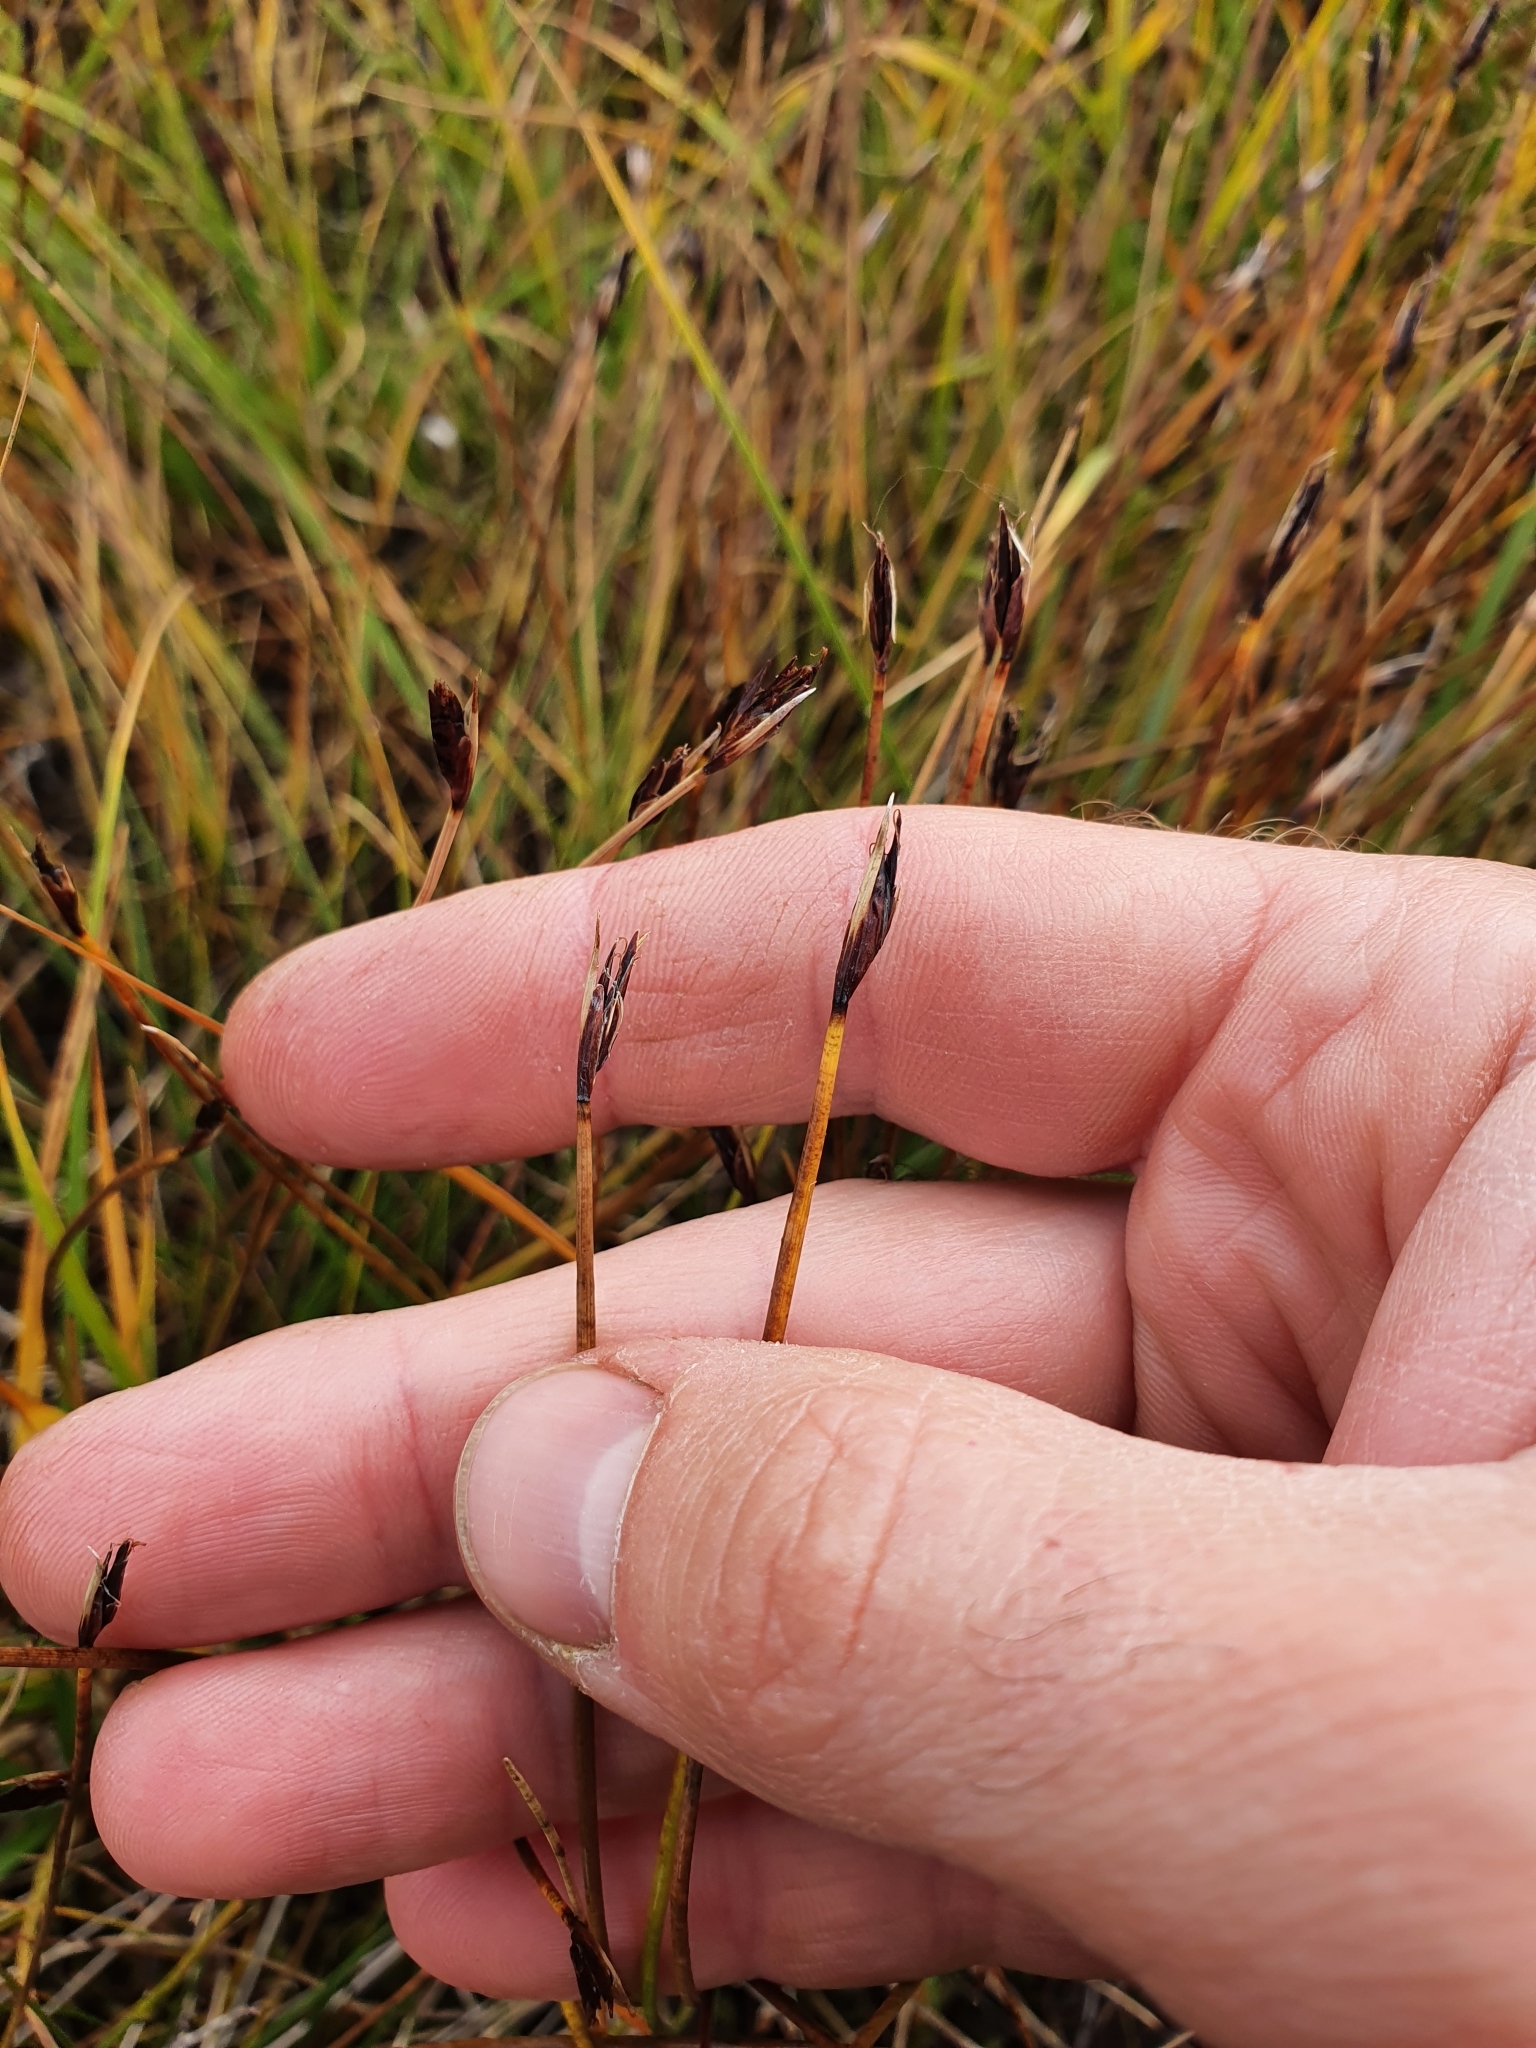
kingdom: Plantae
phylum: Tracheophyta
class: Liliopsida
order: Poales
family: Cyperaceae
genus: Schoenus
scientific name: Schoenus ferrugineus
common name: Brown bog-rush
